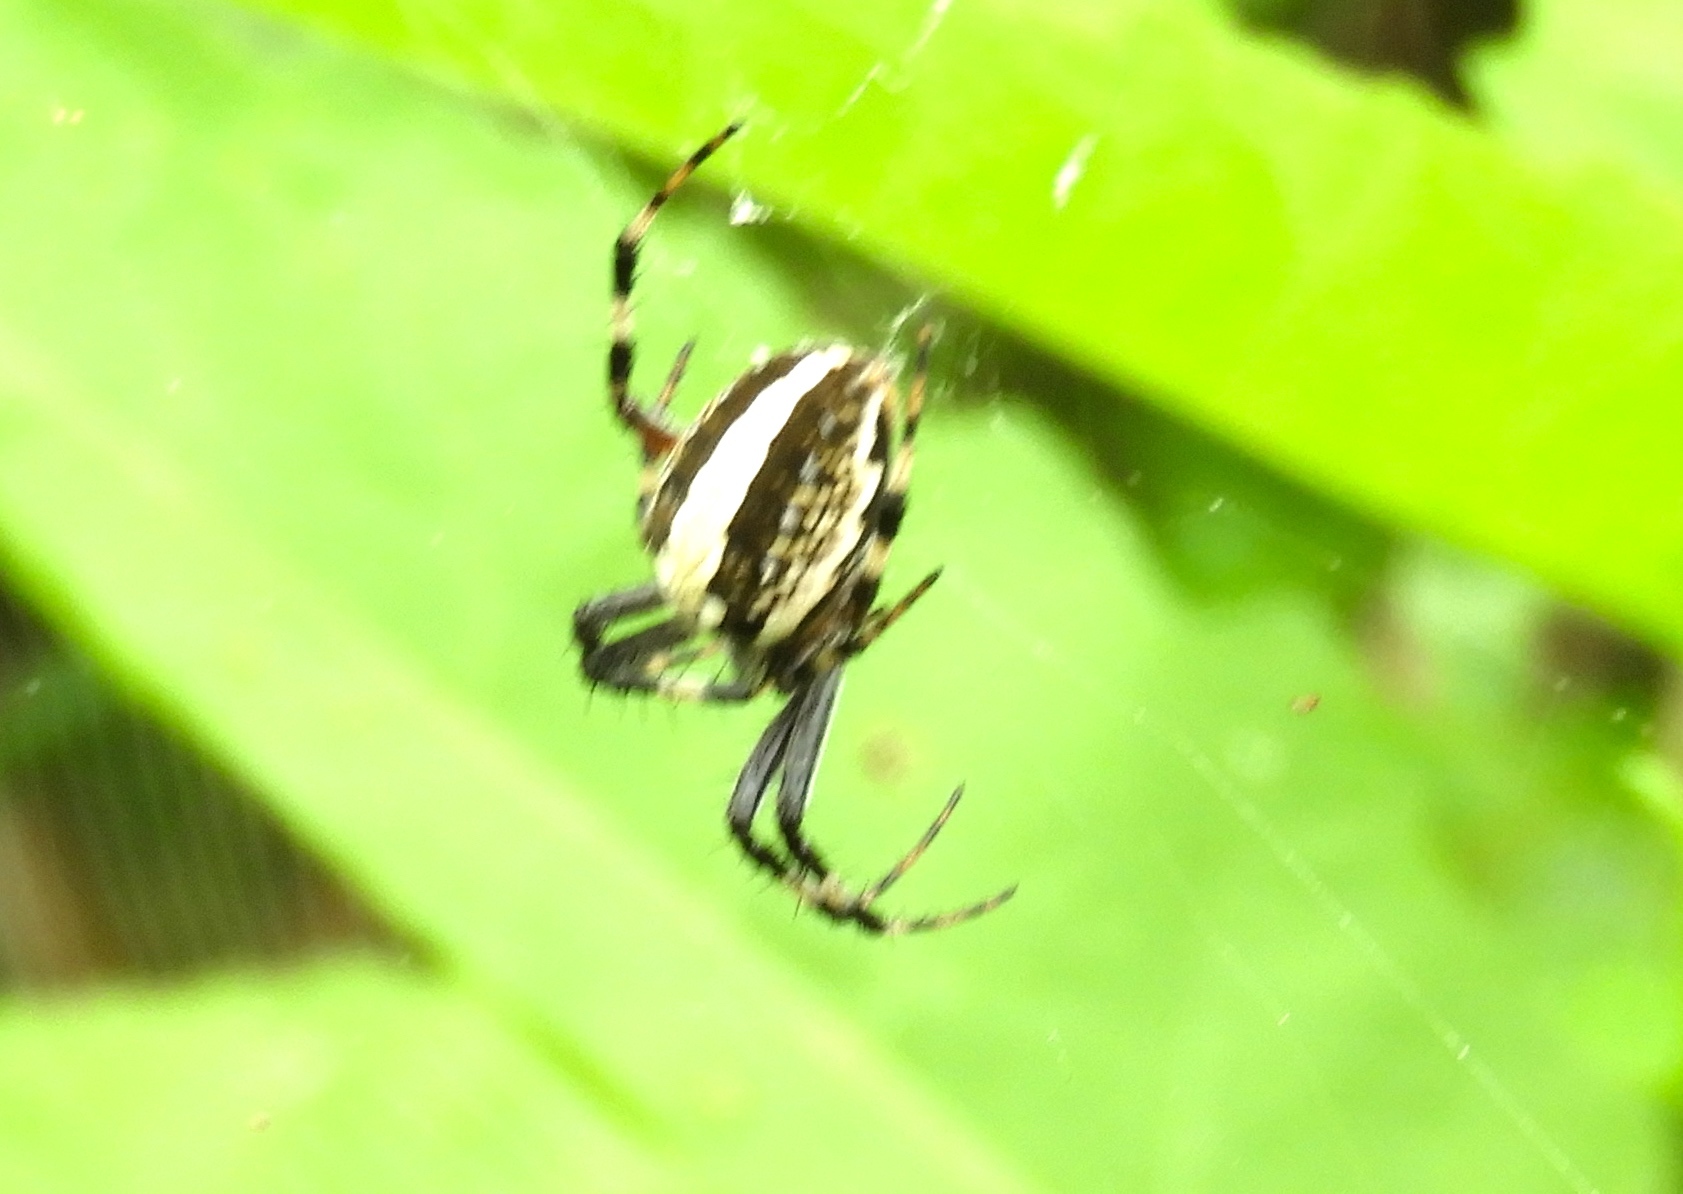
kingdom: Animalia
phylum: Arthropoda
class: Arachnida
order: Araneae
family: Araneidae
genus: Neoscona
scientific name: Neoscona oaxacensis
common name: Orb weavers
